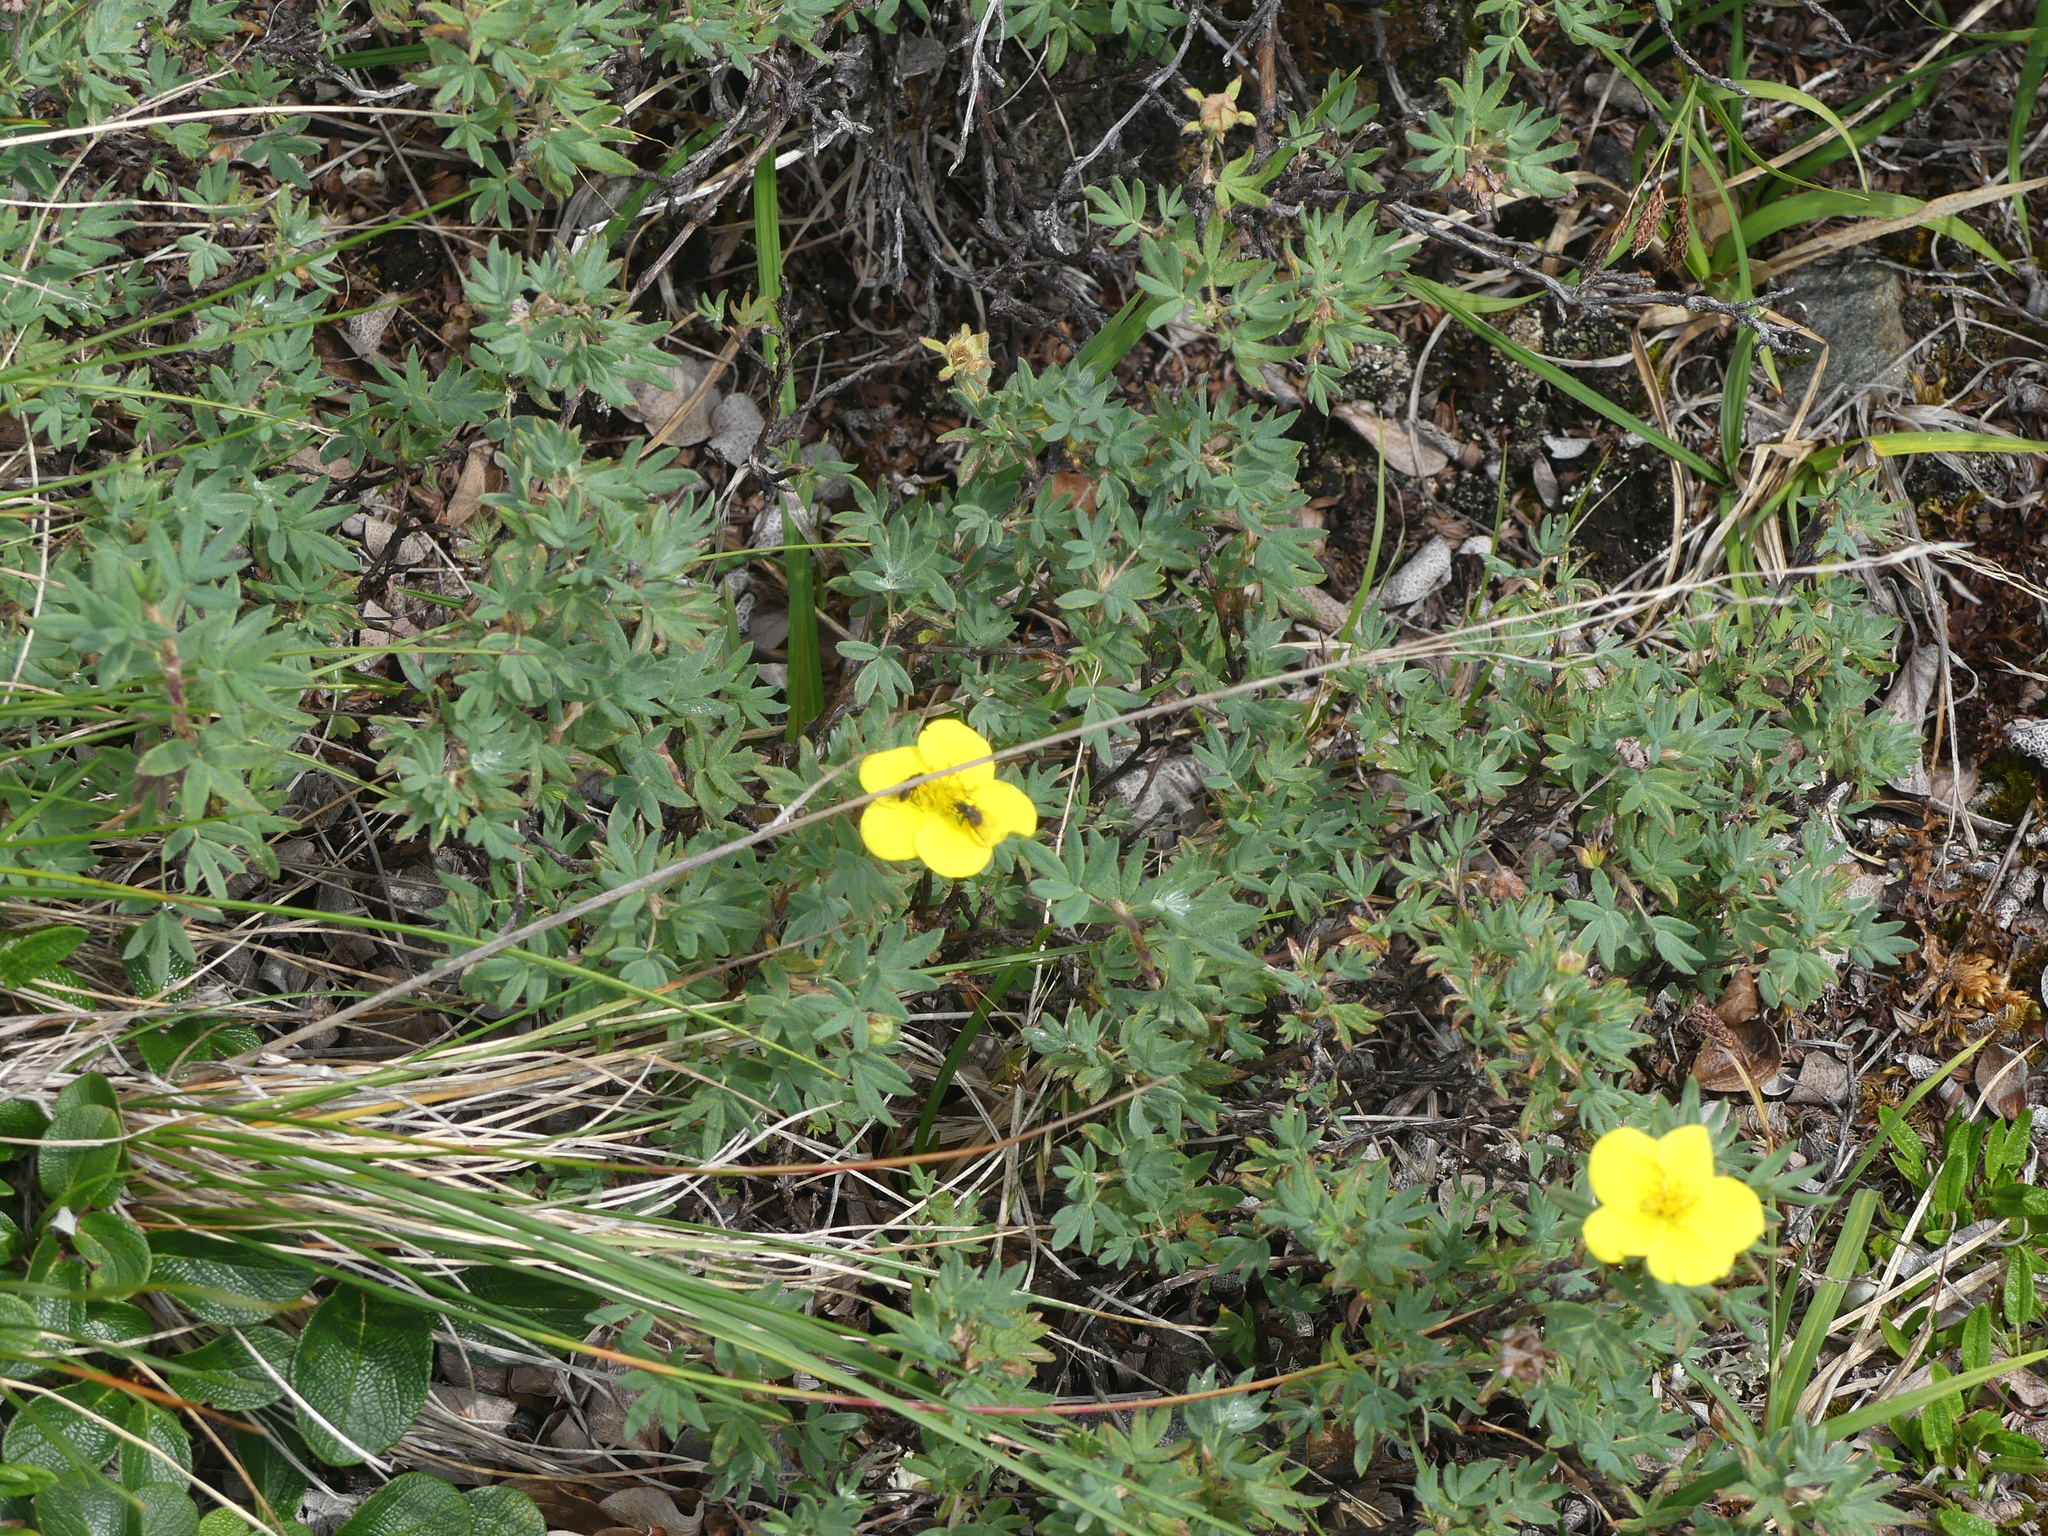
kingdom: Plantae
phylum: Tracheophyta
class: Magnoliopsida
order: Rosales
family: Rosaceae
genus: Dasiphora
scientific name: Dasiphora fruticosa
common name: Shrubby cinquefoil
